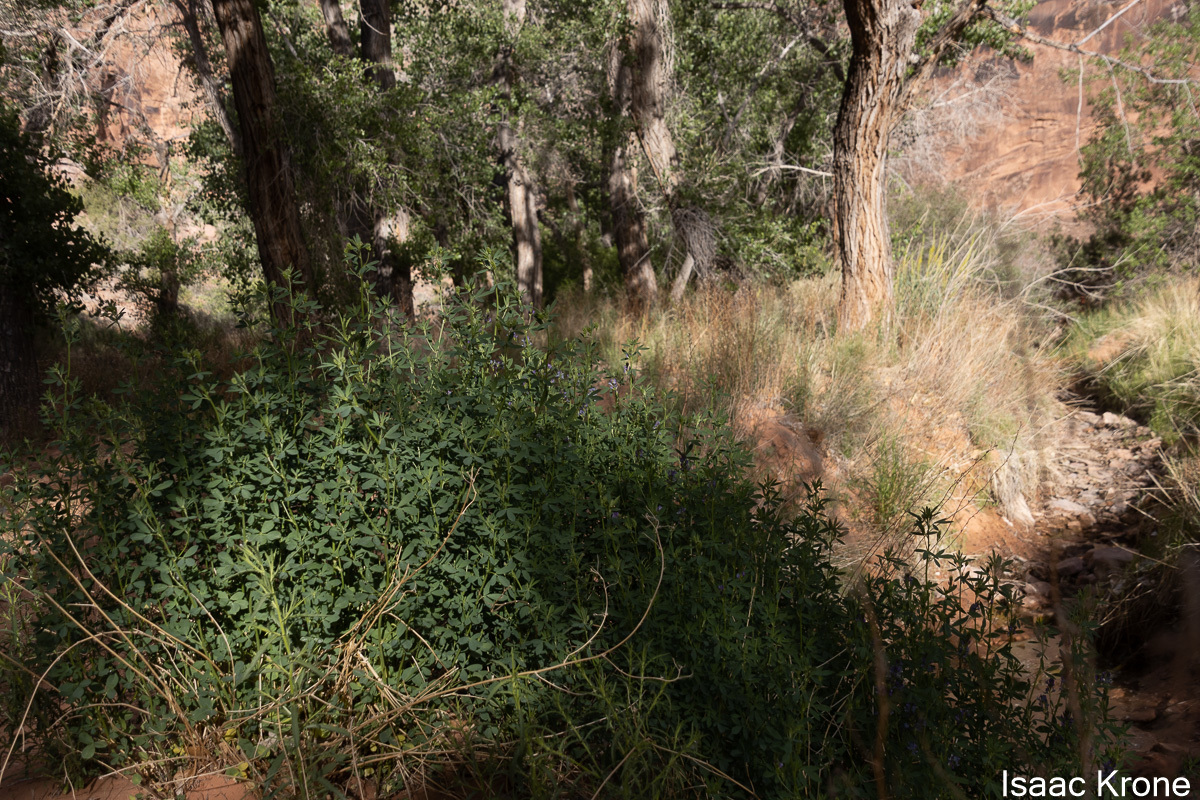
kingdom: Plantae
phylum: Tracheophyta
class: Magnoliopsida
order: Fabales
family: Fabaceae
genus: Medicago
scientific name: Medicago sativa
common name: Alfalfa
